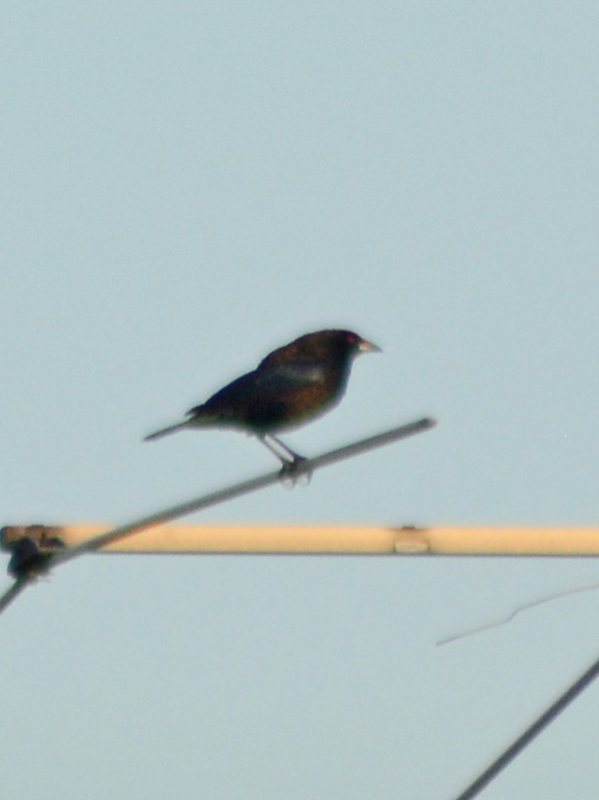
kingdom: Animalia
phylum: Chordata
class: Aves
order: Passeriformes
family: Icteridae
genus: Molothrus
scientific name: Molothrus aeneus
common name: Bronzed cowbird
